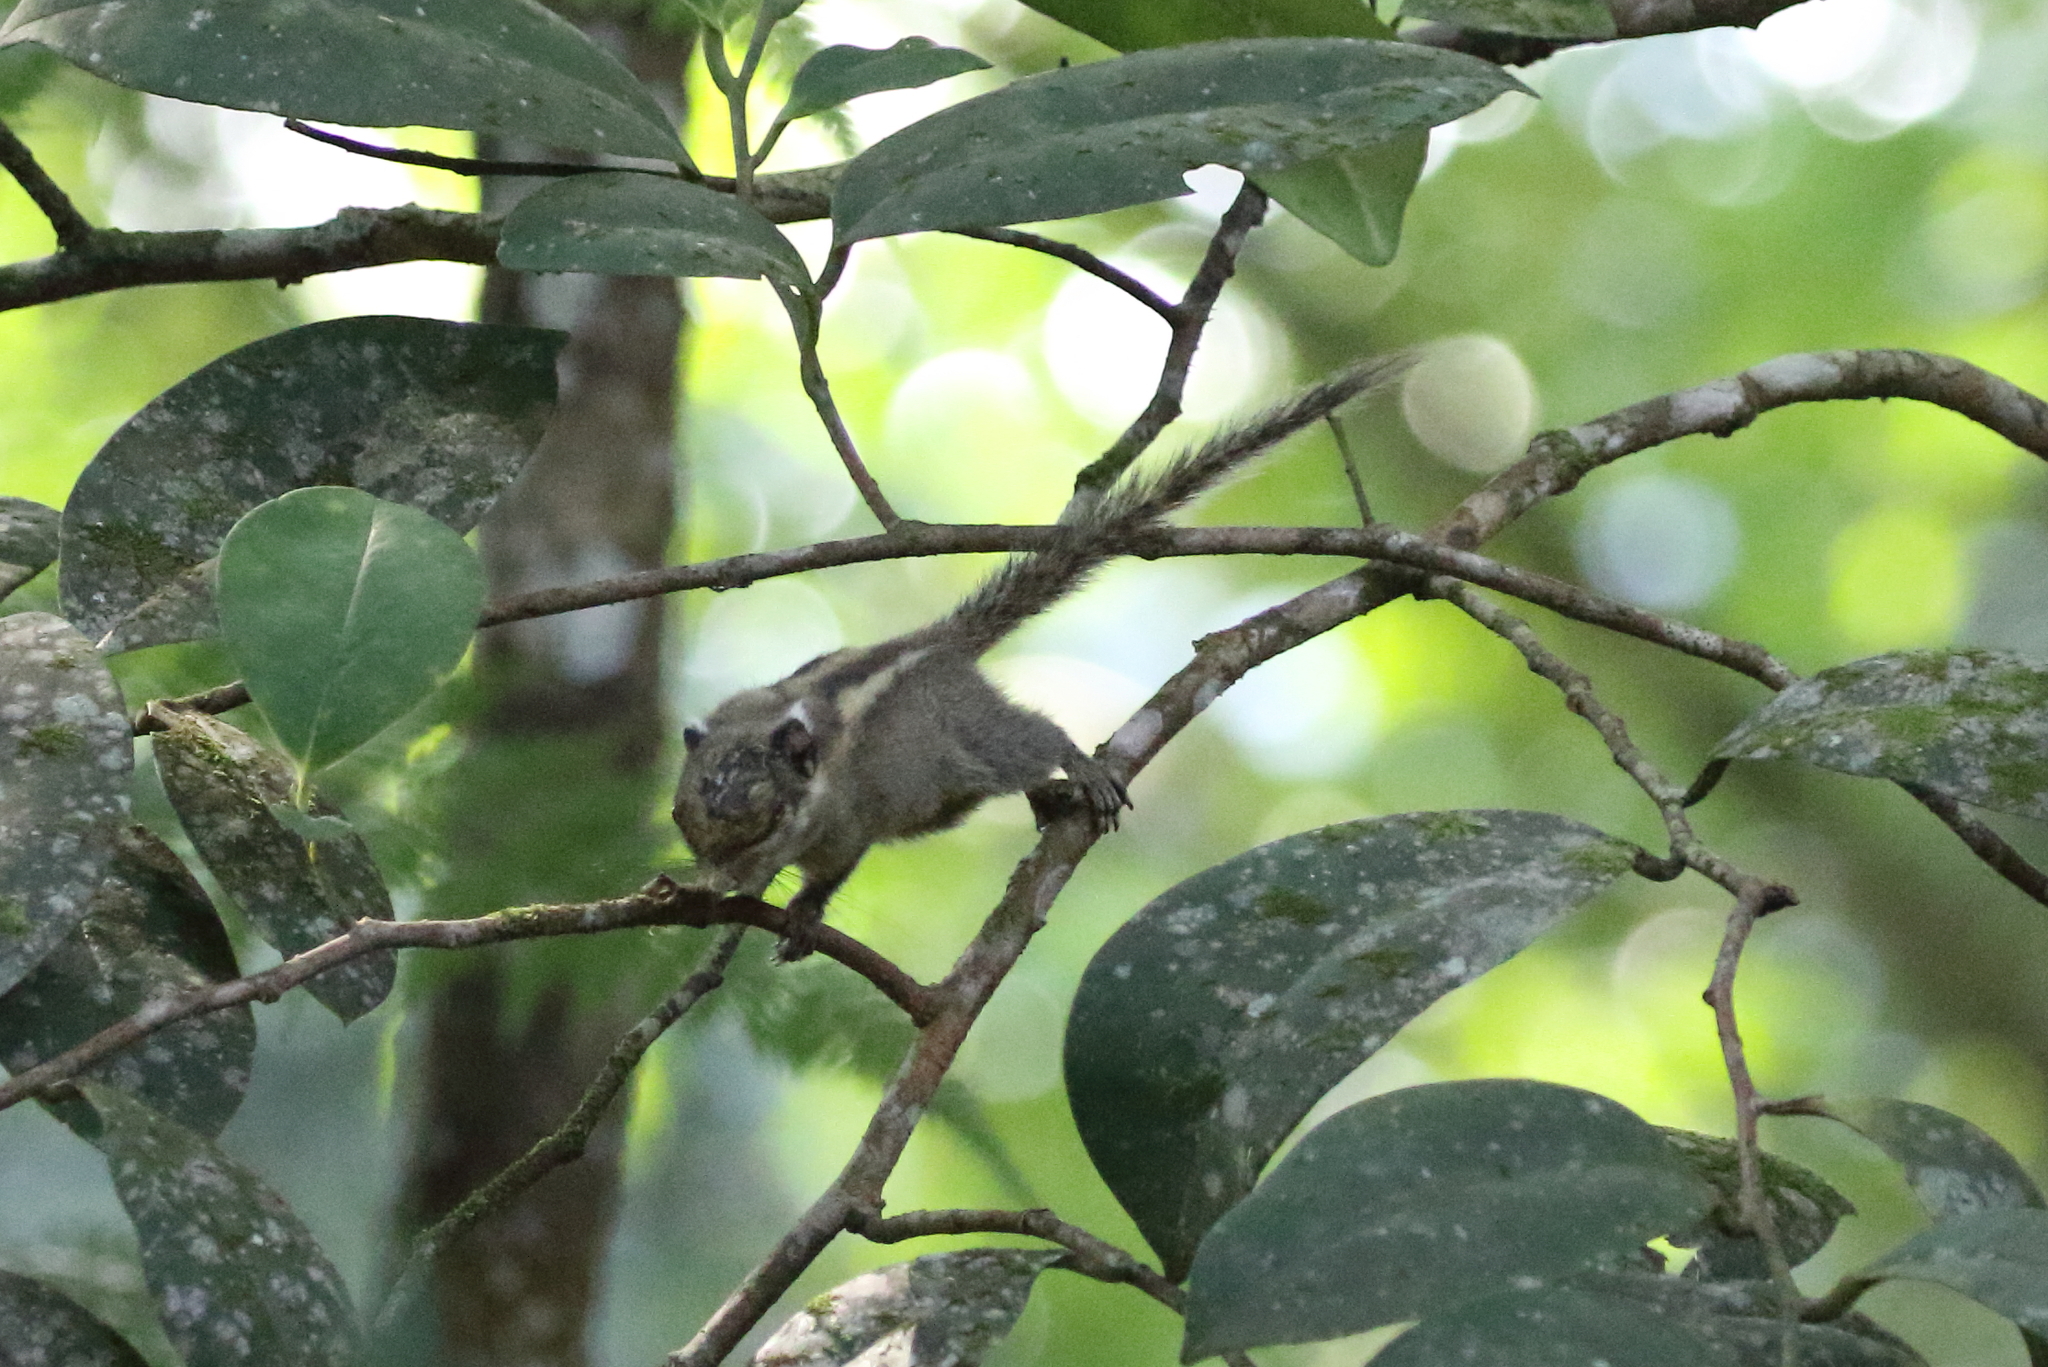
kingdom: Animalia
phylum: Chordata
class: Mammalia
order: Rodentia
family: Sciuridae
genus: Tamiops
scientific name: Tamiops mcclellandii
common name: Himalayan striped squirrel
